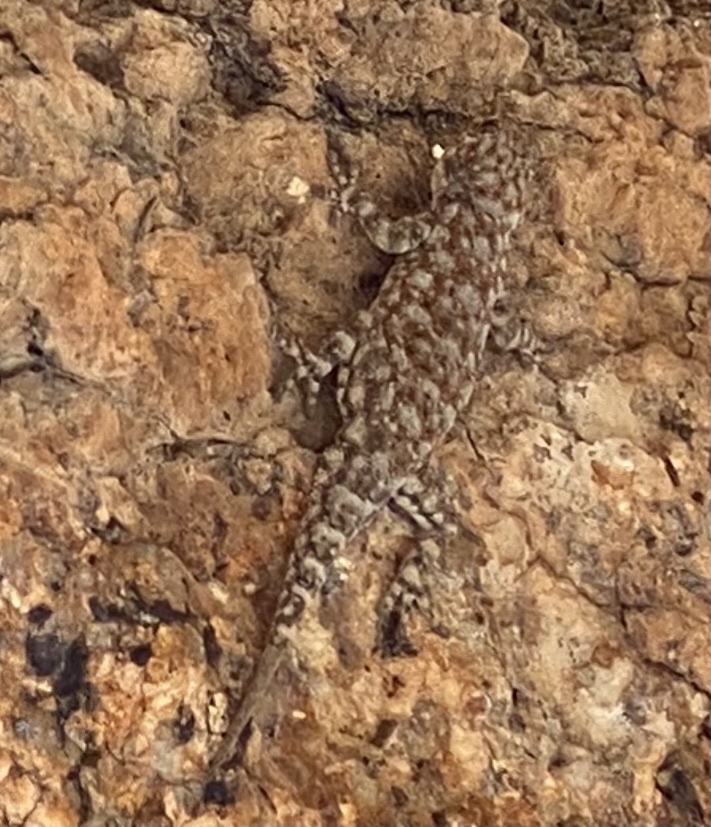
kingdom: Animalia
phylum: Chordata
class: Squamata
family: Gekkonidae
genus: Rhoptropus
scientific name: Rhoptropus barnardi
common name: Barnard’s namib day gecko
